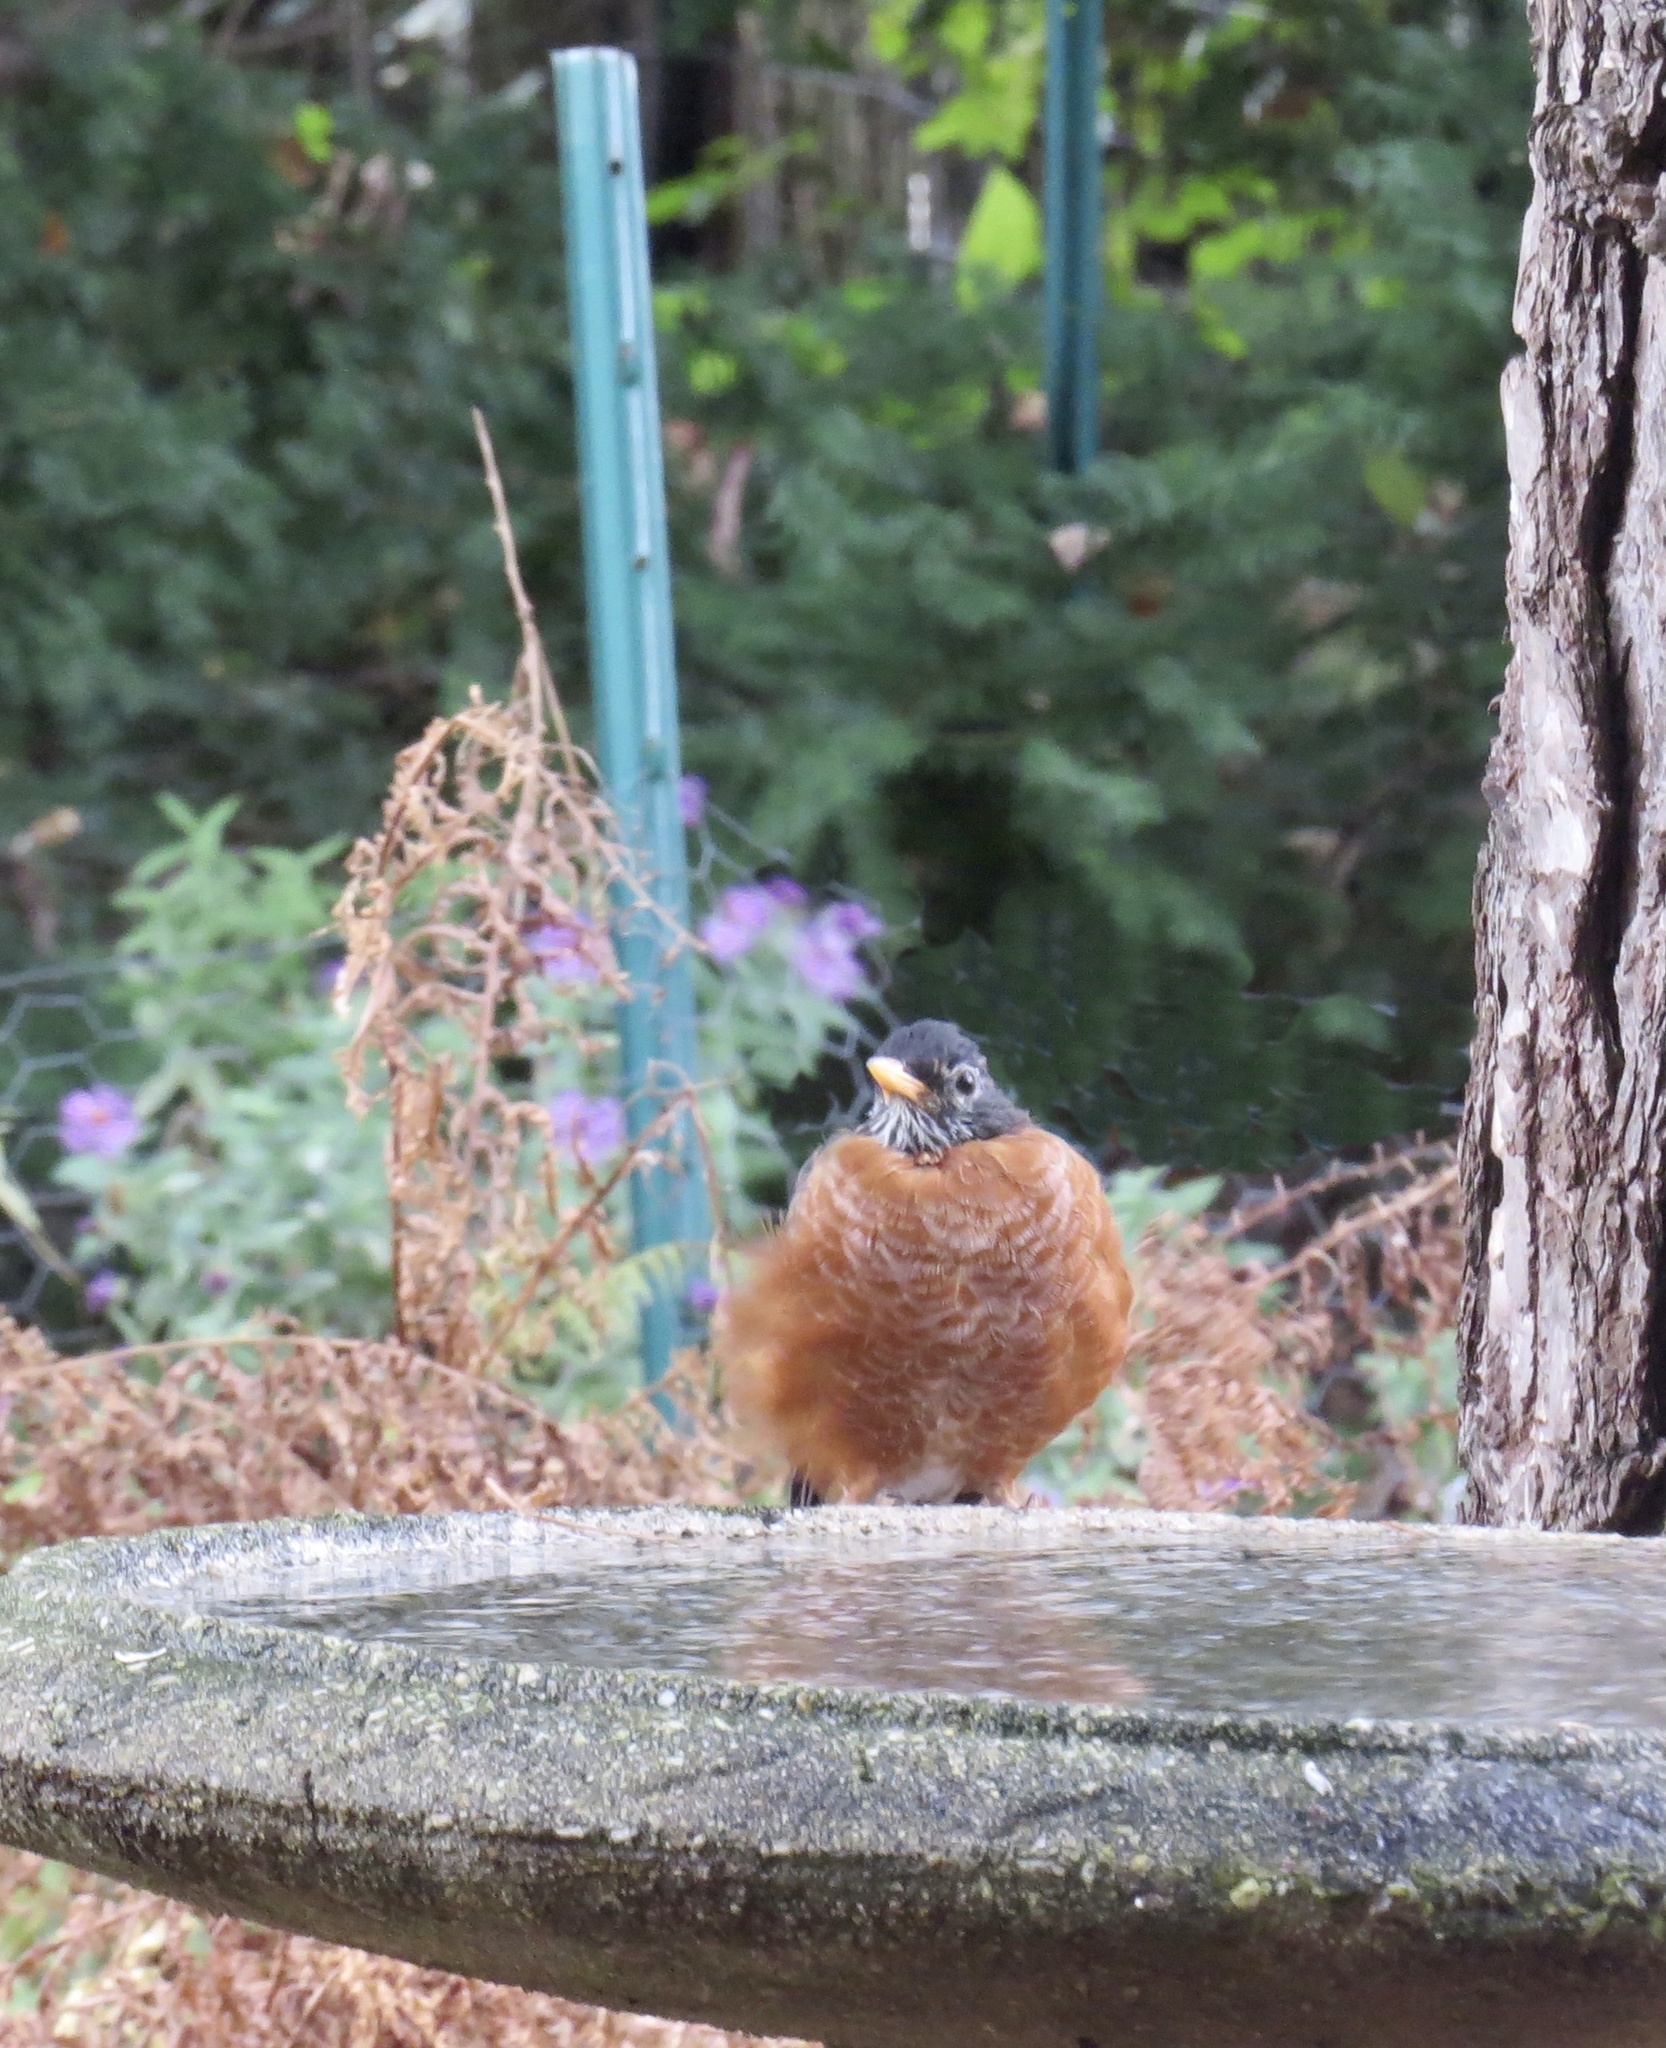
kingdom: Animalia
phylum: Chordata
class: Aves
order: Passeriformes
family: Turdidae
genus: Turdus
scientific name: Turdus migratorius
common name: American robin
